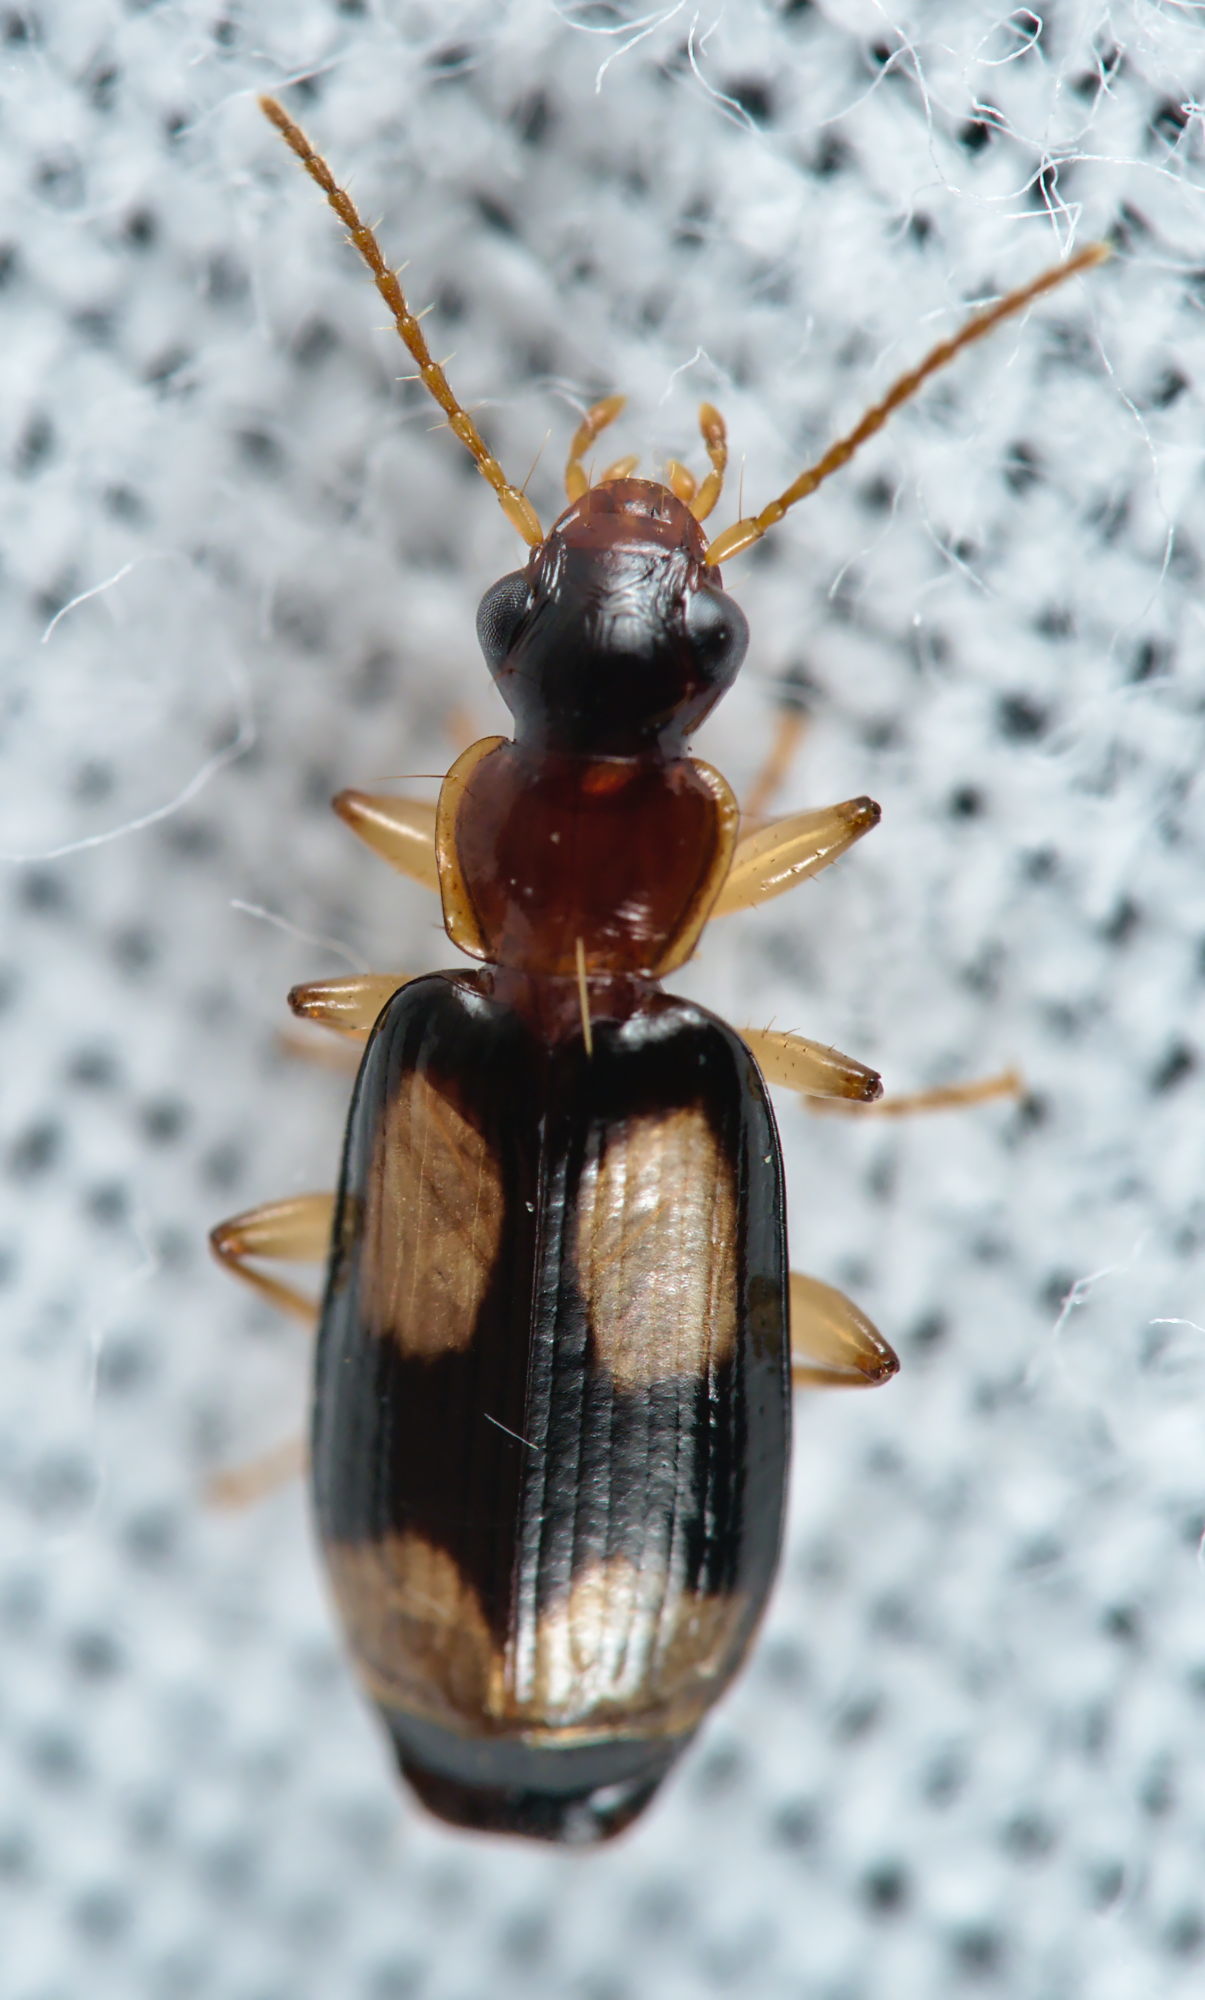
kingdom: Animalia
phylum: Arthropoda
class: Insecta
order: Coleoptera
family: Carabidae
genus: Dromius
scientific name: Dromius quadrimaculatus
